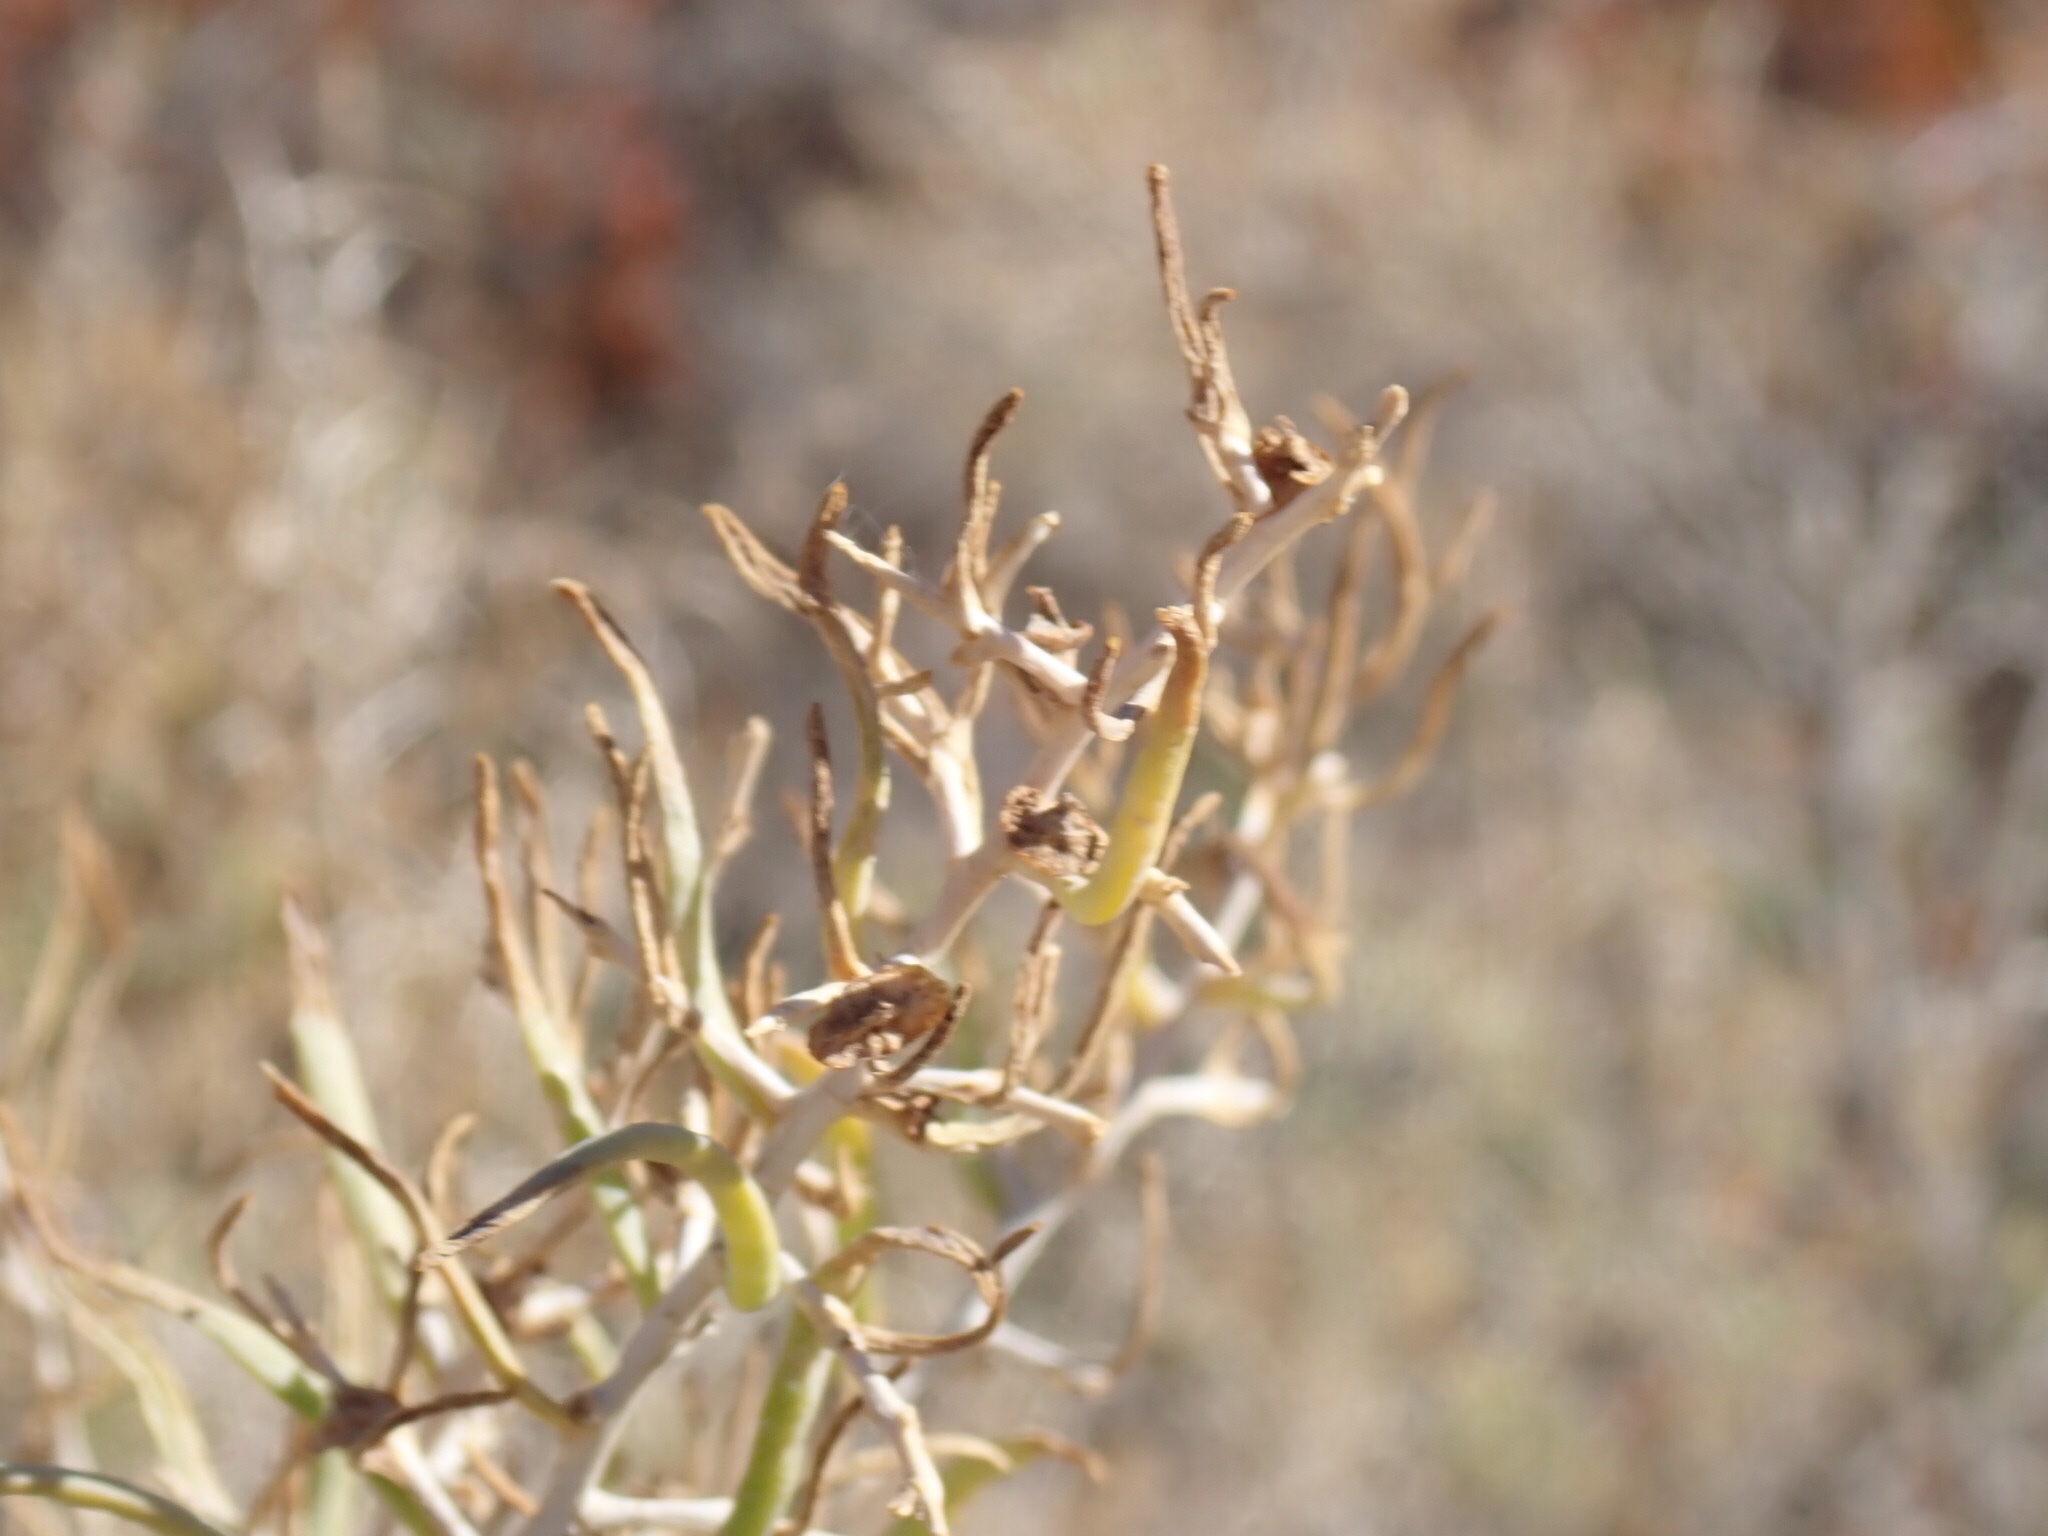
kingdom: Plantae
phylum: Tracheophyta
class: Magnoliopsida
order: Caryophyllales
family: Sarcobataceae
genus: Sarcobatus
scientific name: Sarcobatus vermiculatus
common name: Greasewood
